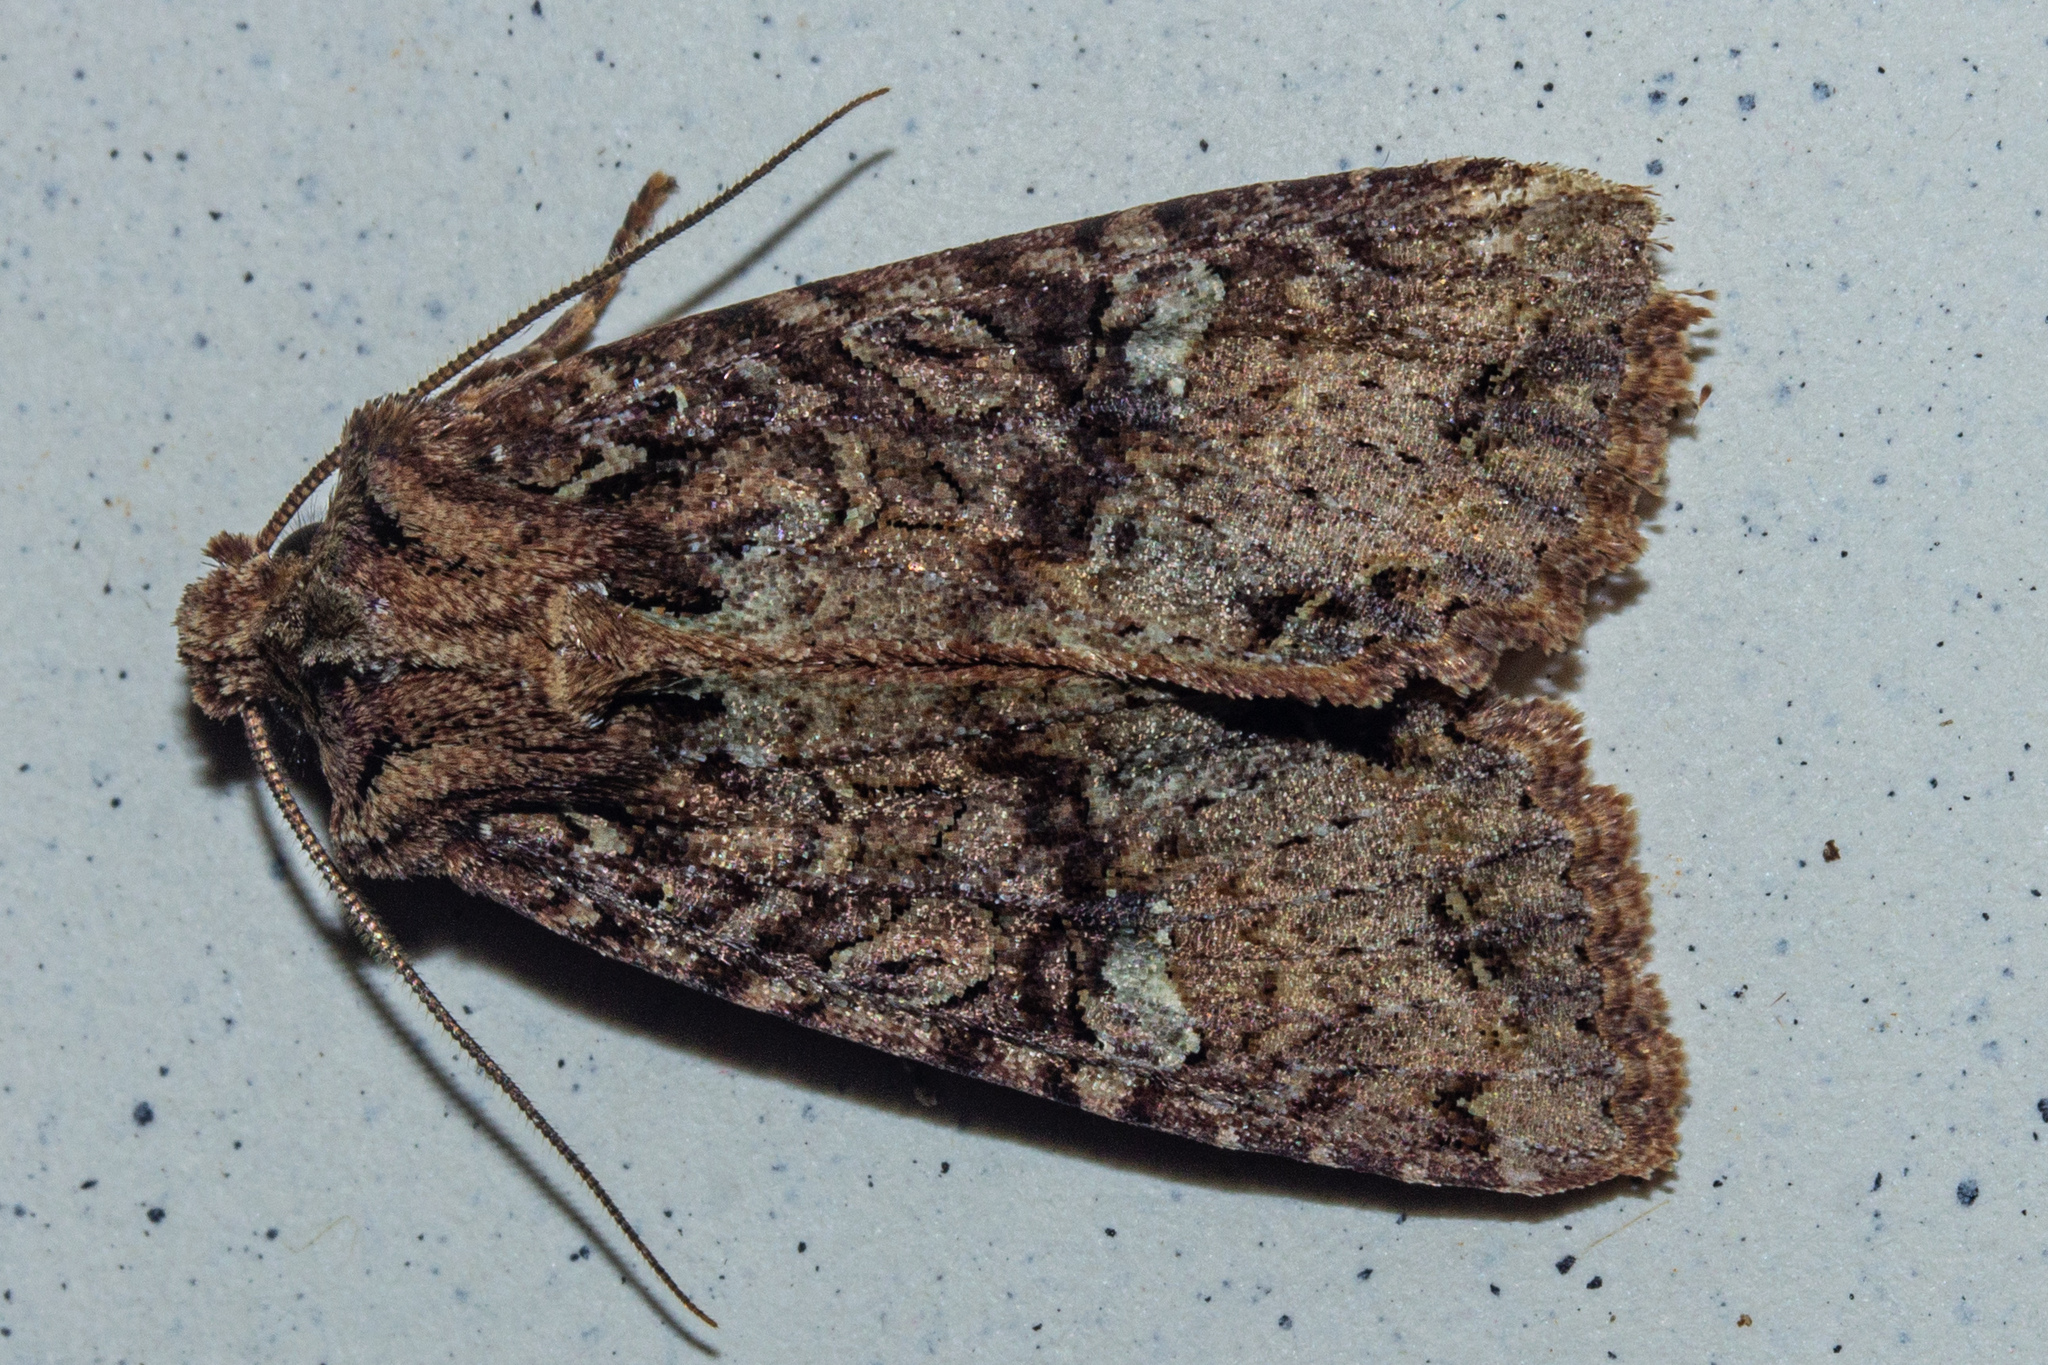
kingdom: Animalia
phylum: Arthropoda
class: Insecta
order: Lepidoptera
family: Noctuidae
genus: Meterana
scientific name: Meterana
